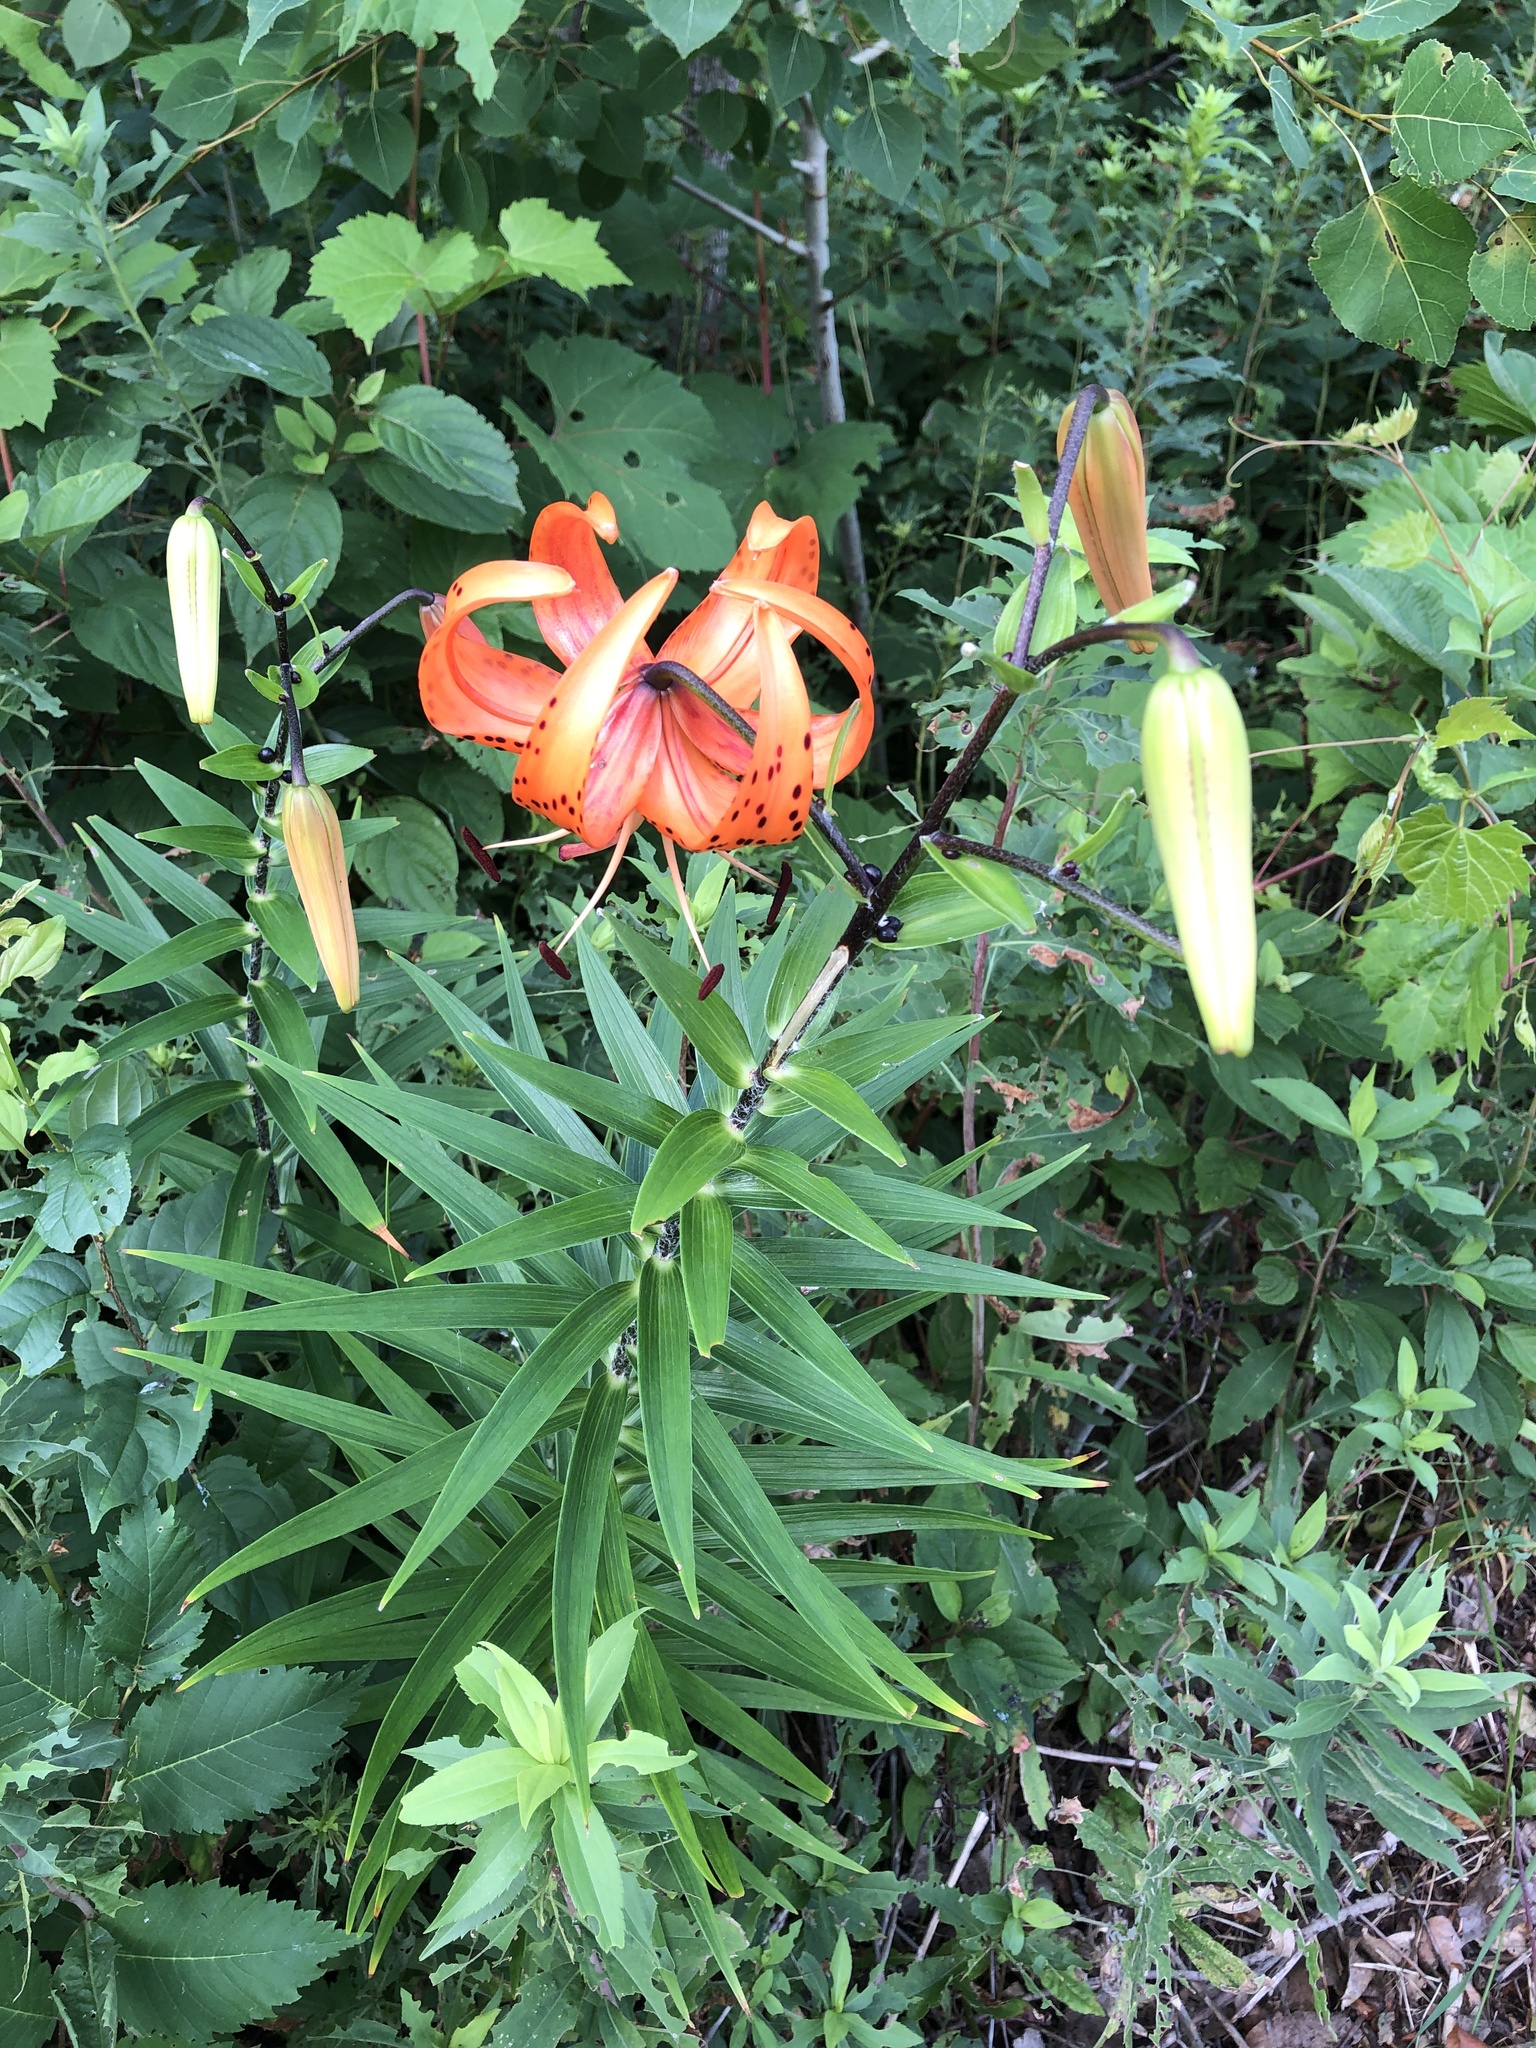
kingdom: Plantae
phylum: Tracheophyta
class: Liliopsida
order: Liliales
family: Liliaceae
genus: Lilium
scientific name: Lilium lancifolium
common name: Tiger lily
